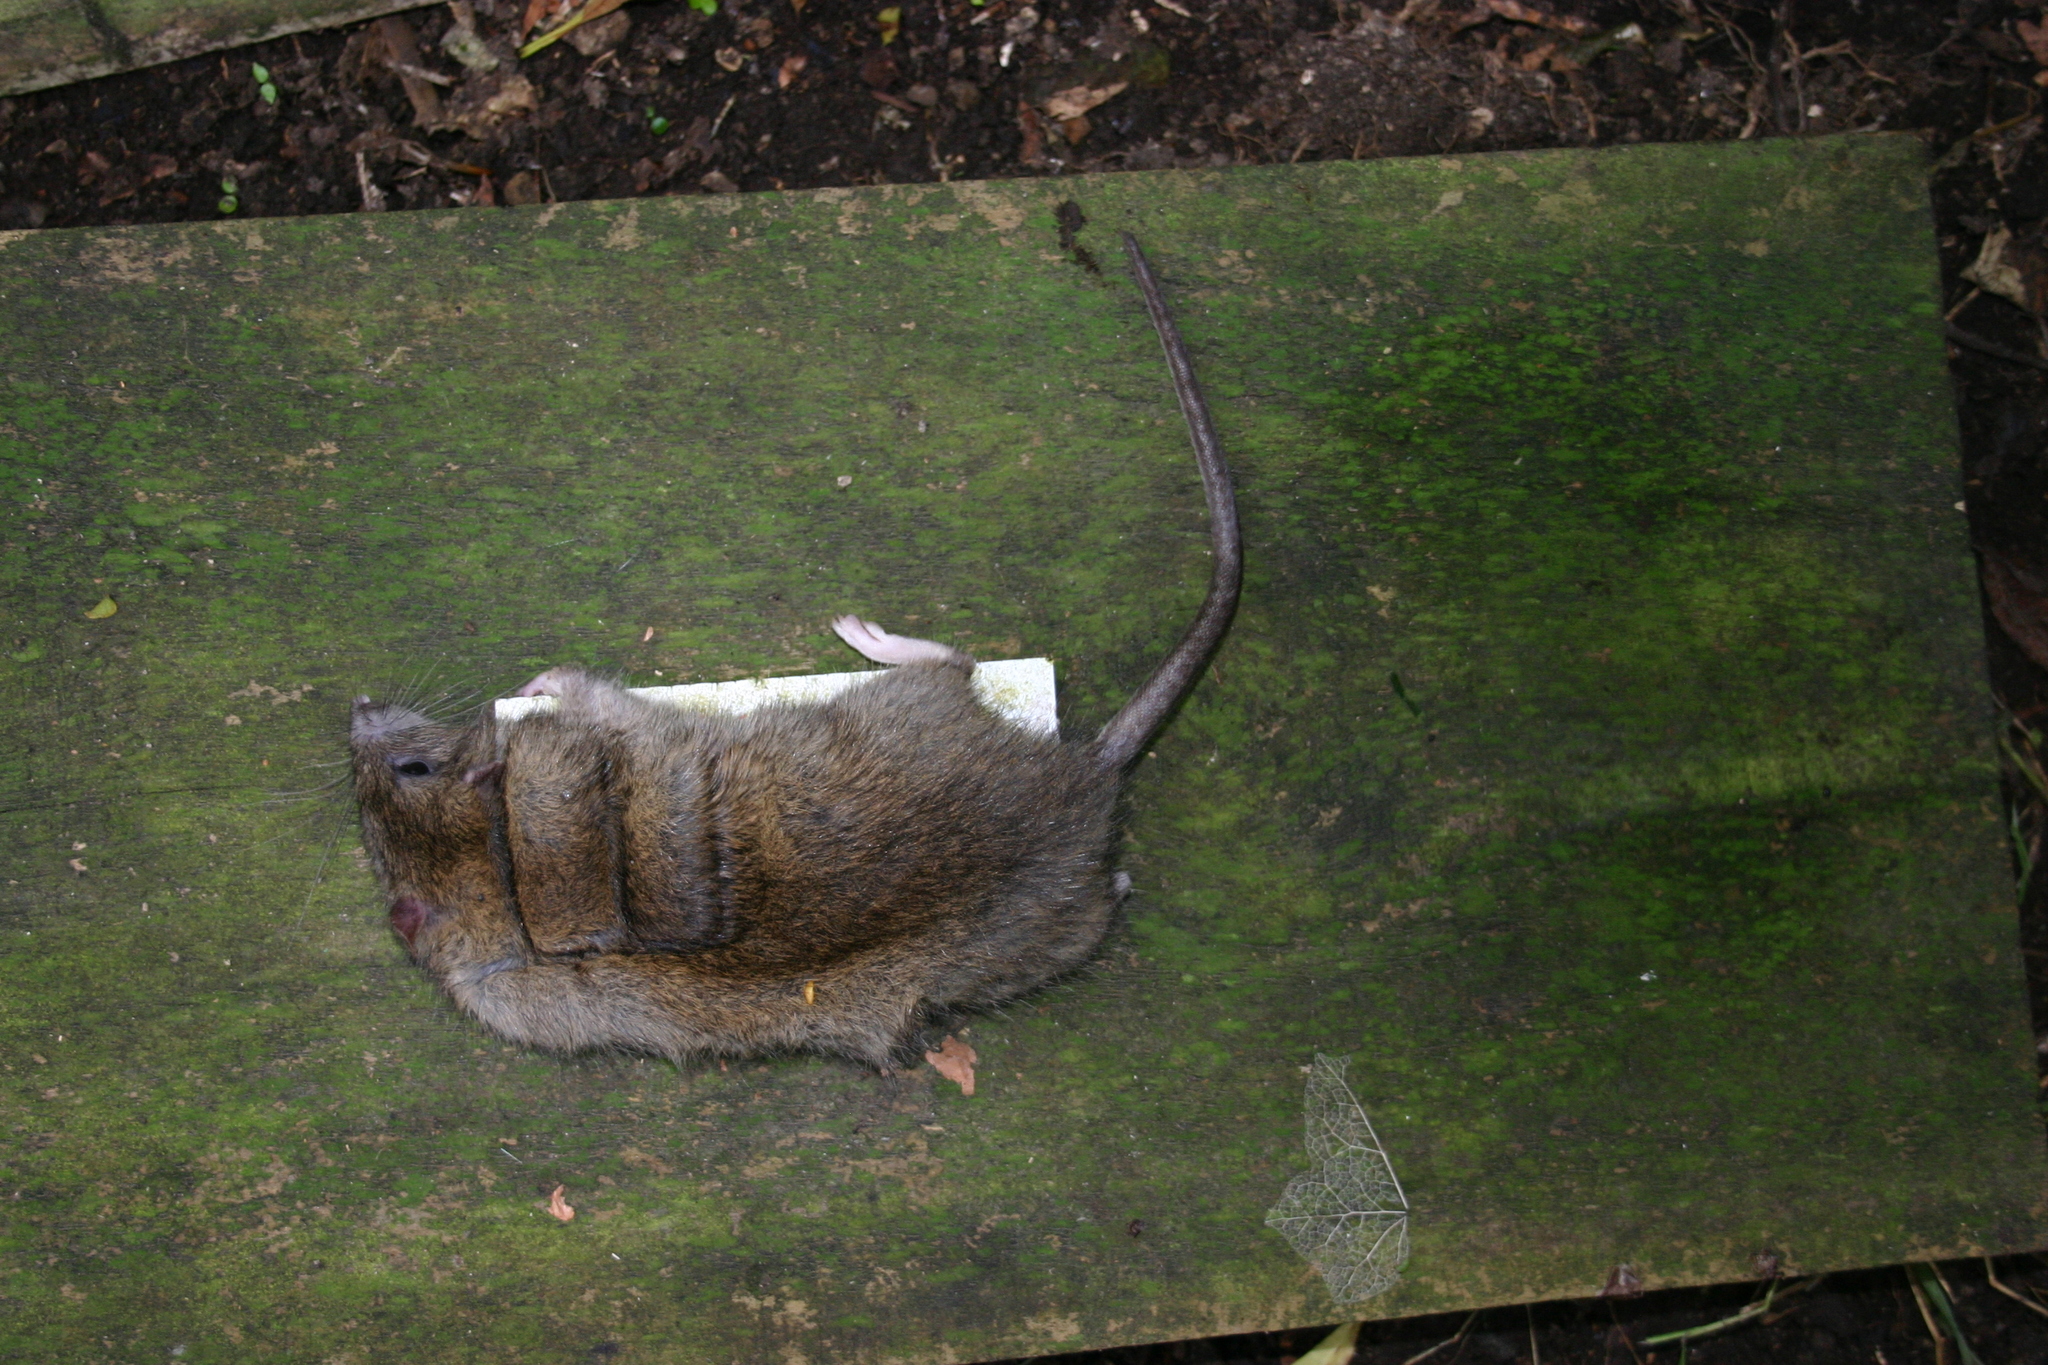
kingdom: Animalia
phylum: Chordata
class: Mammalia
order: Rodentia
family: Muridae
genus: Rattus
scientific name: Rattus norvegicus
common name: Brown rat
